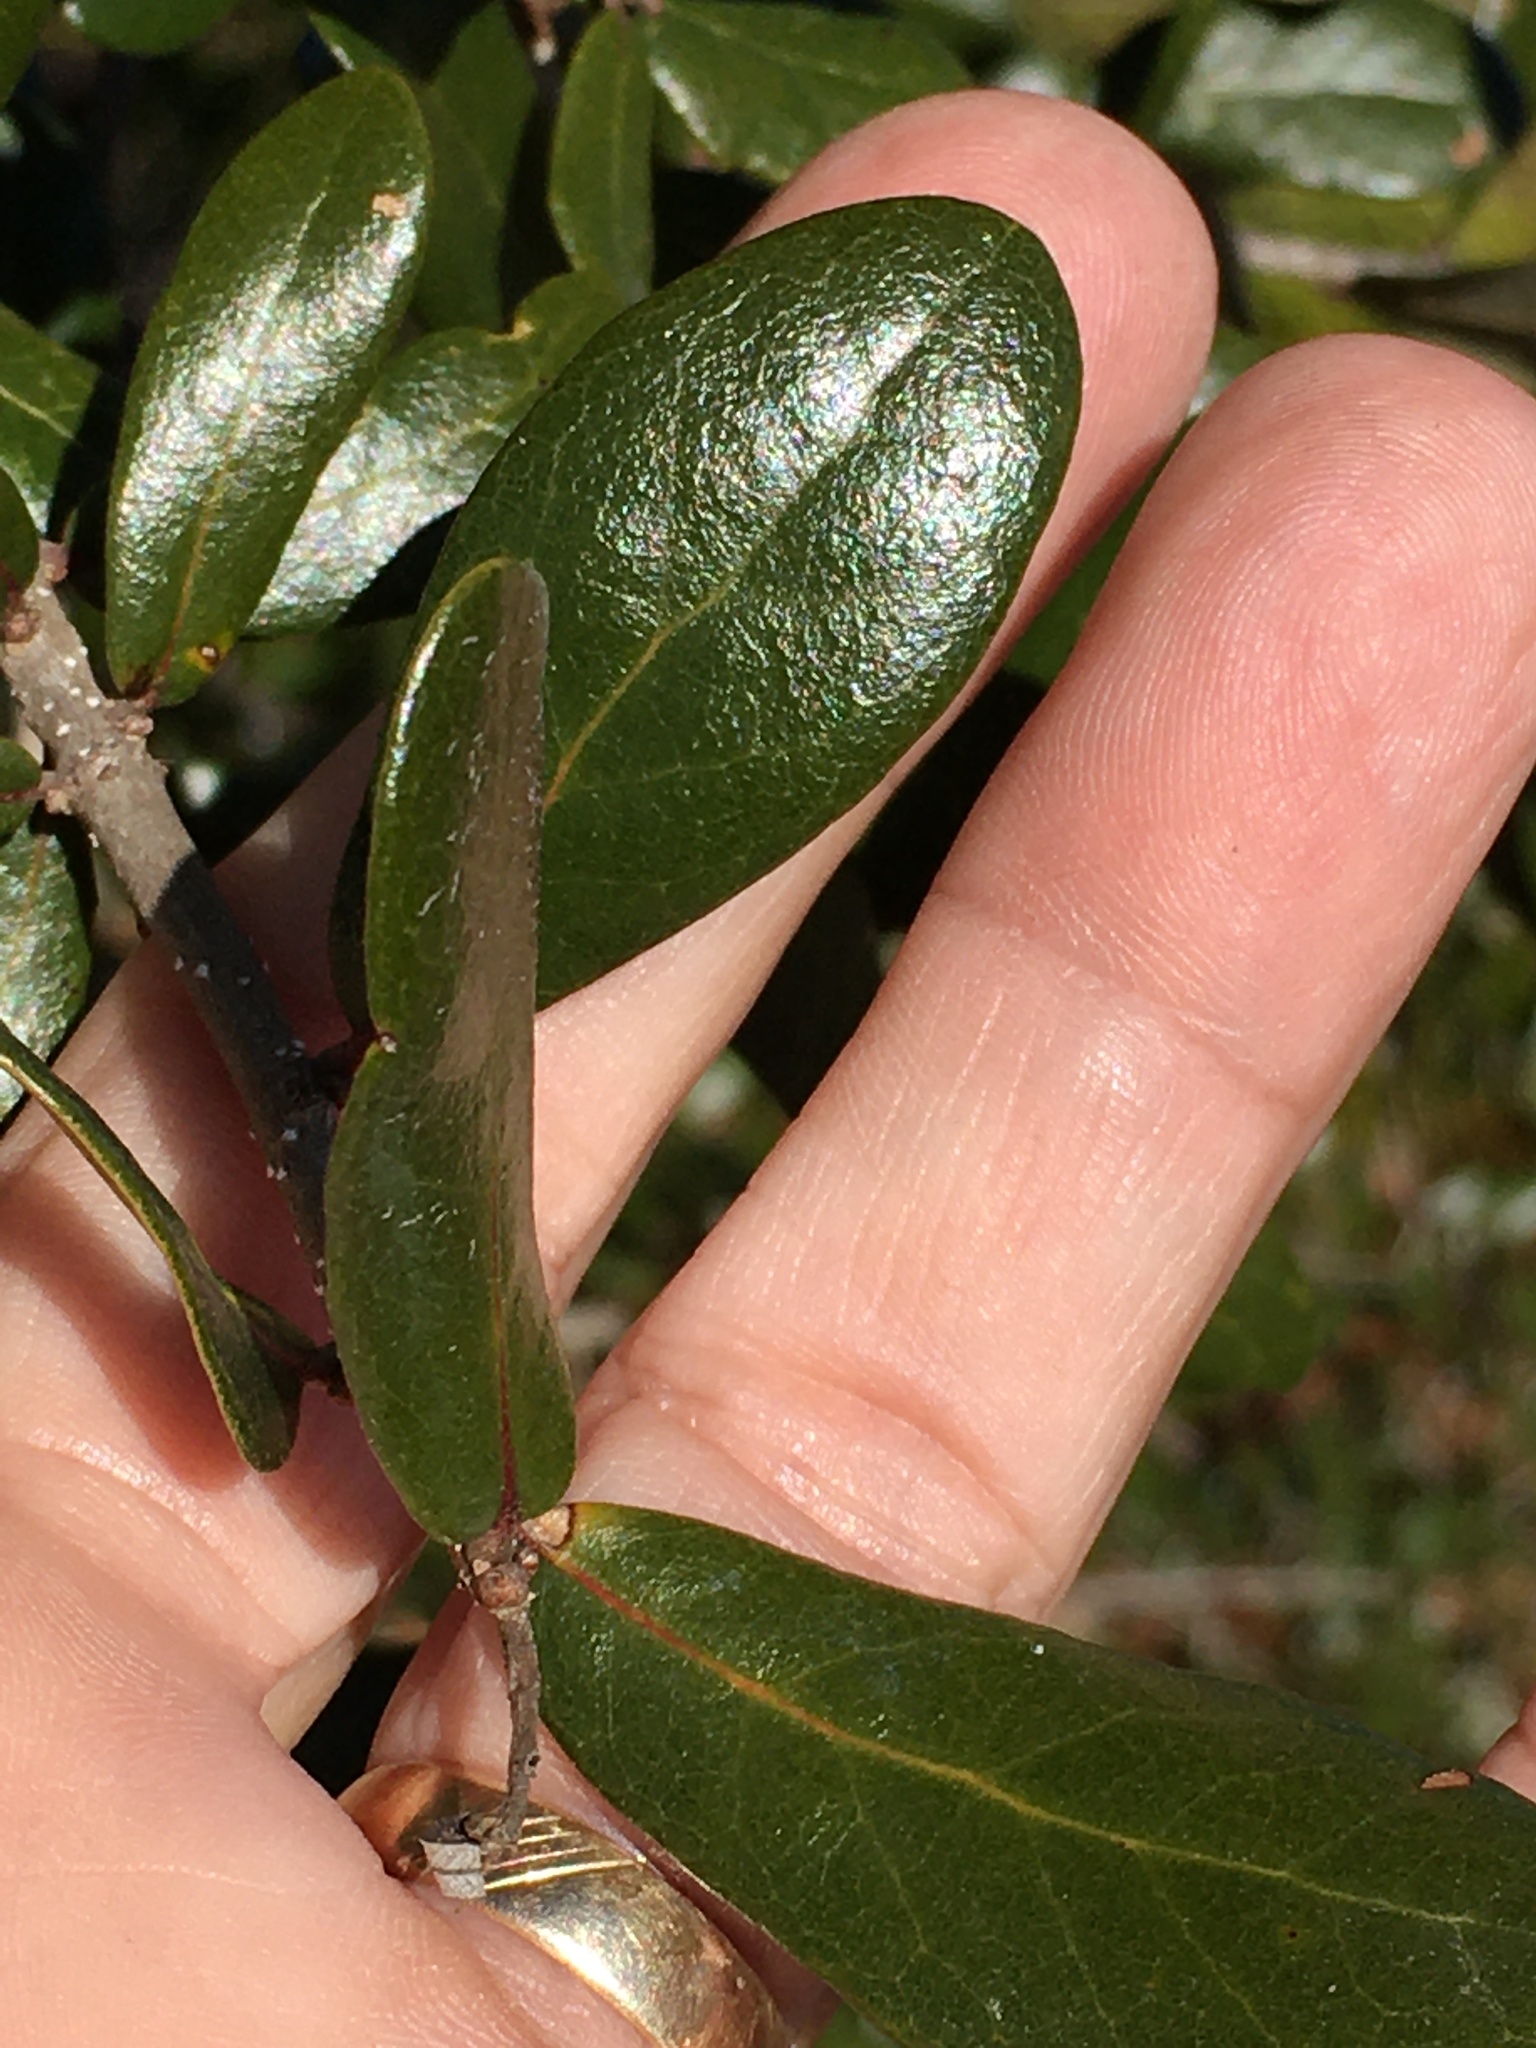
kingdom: Plantae
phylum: Tracheophyta
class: Magnoliopsida
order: Fagales
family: Fagaceae
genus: Quercus
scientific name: Quercus virginiana
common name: Southern live oak
